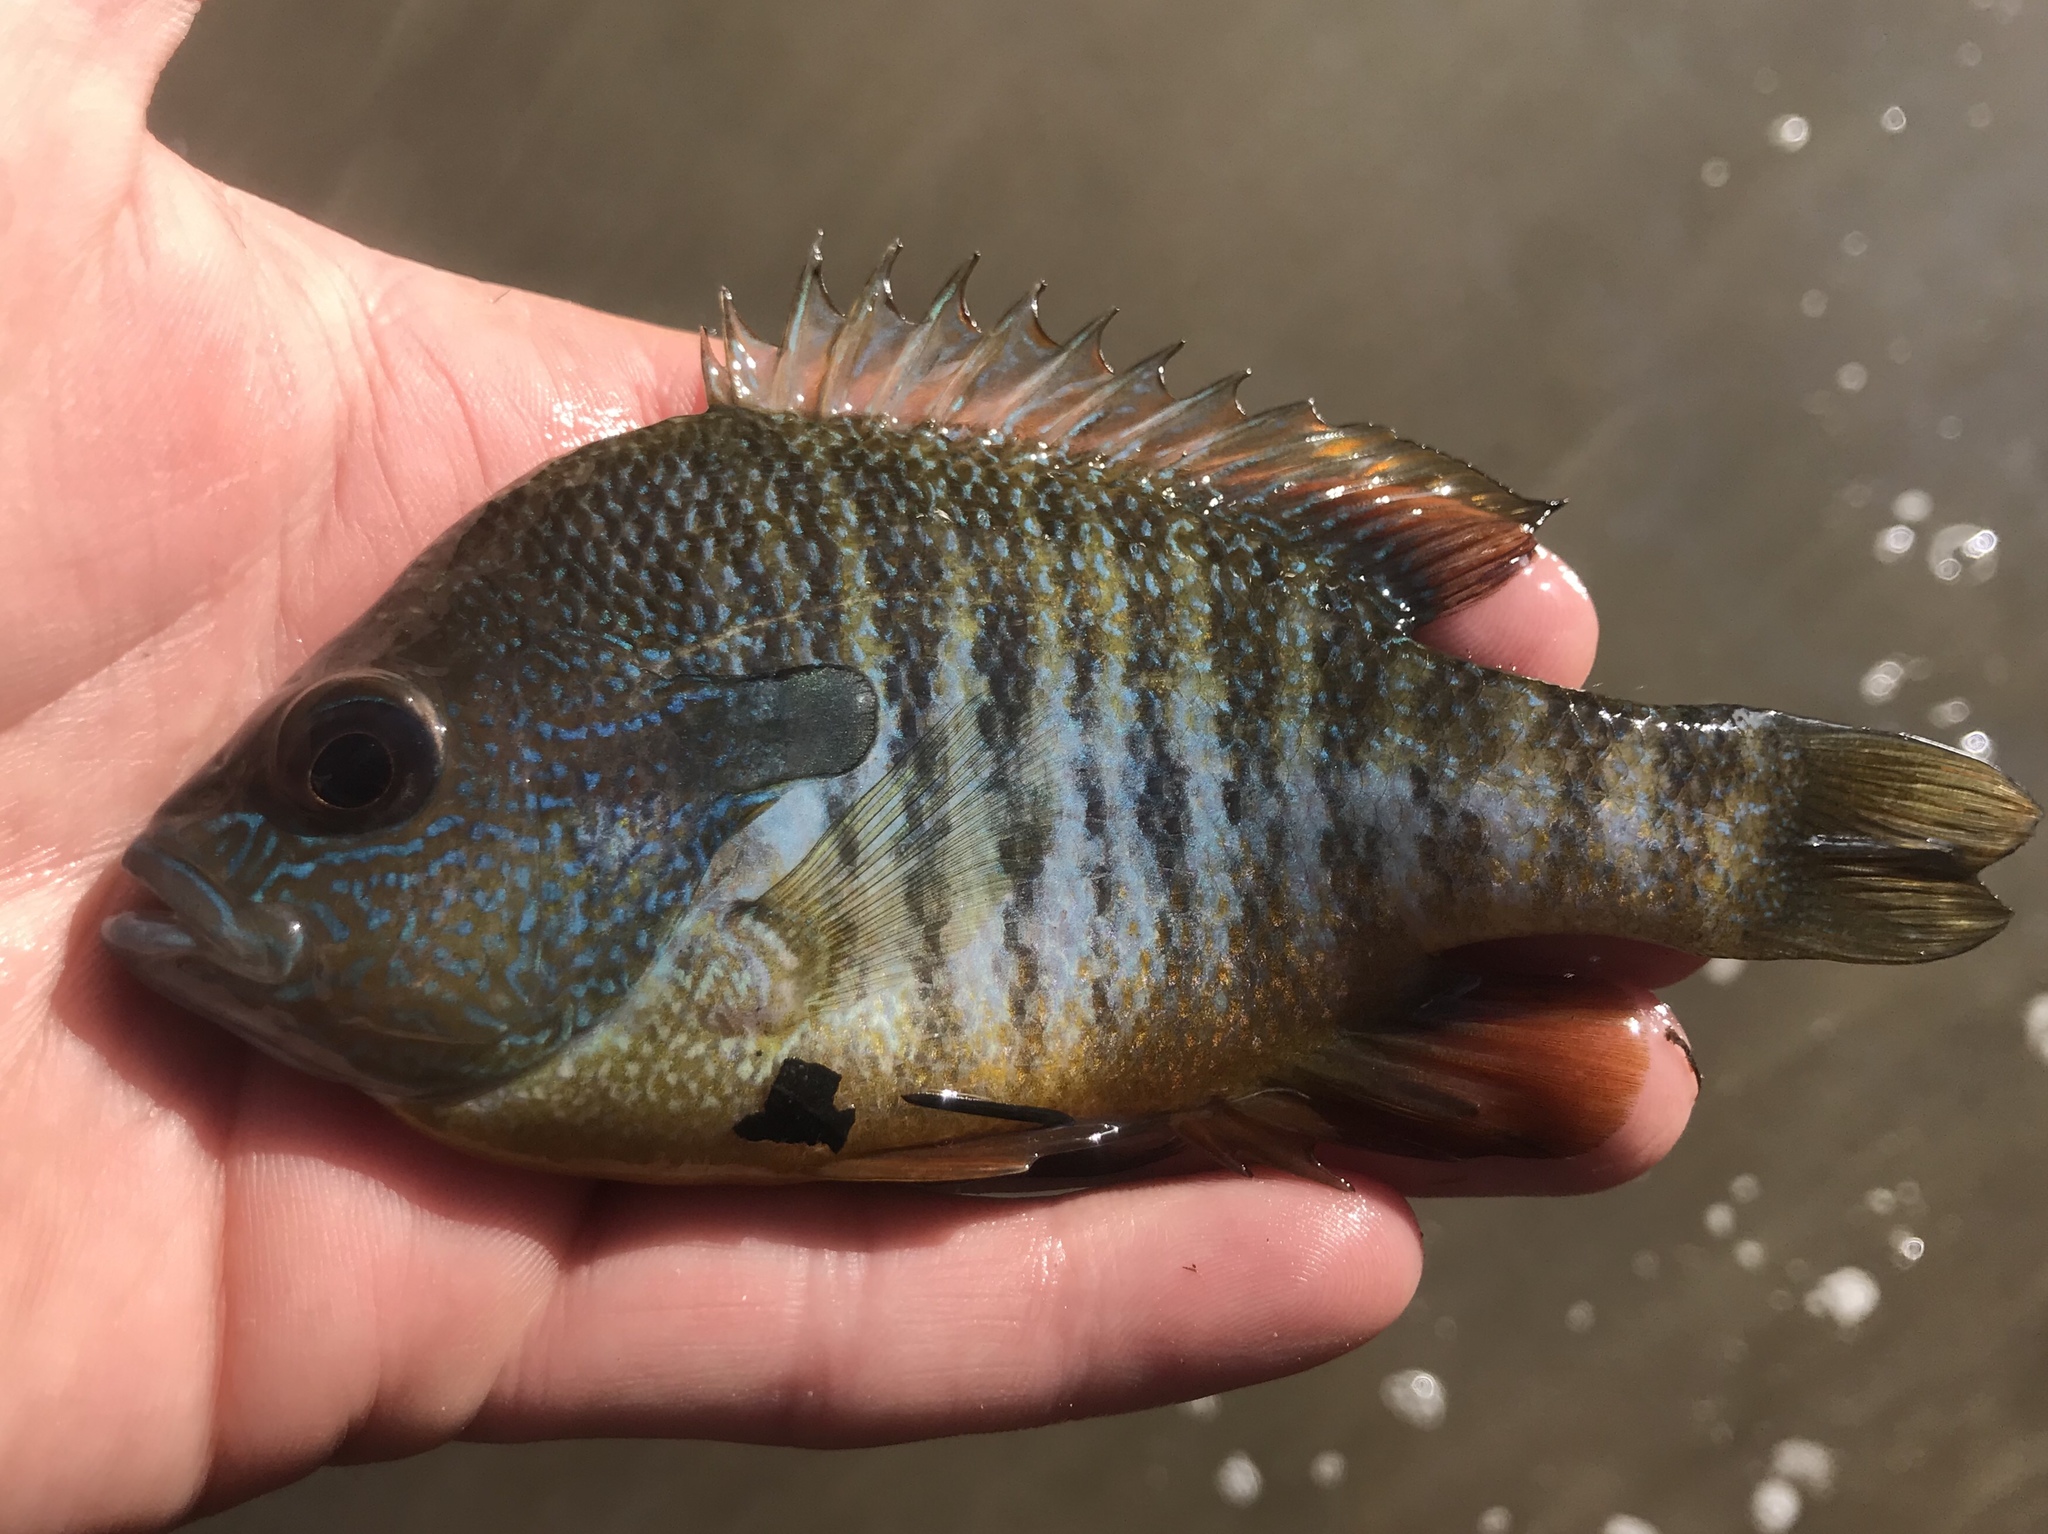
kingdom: Animalia
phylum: Chordata
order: Perciformes
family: Centrarchidae
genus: Lepomis
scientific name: Lepomis megalotis
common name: Longear sunfish
